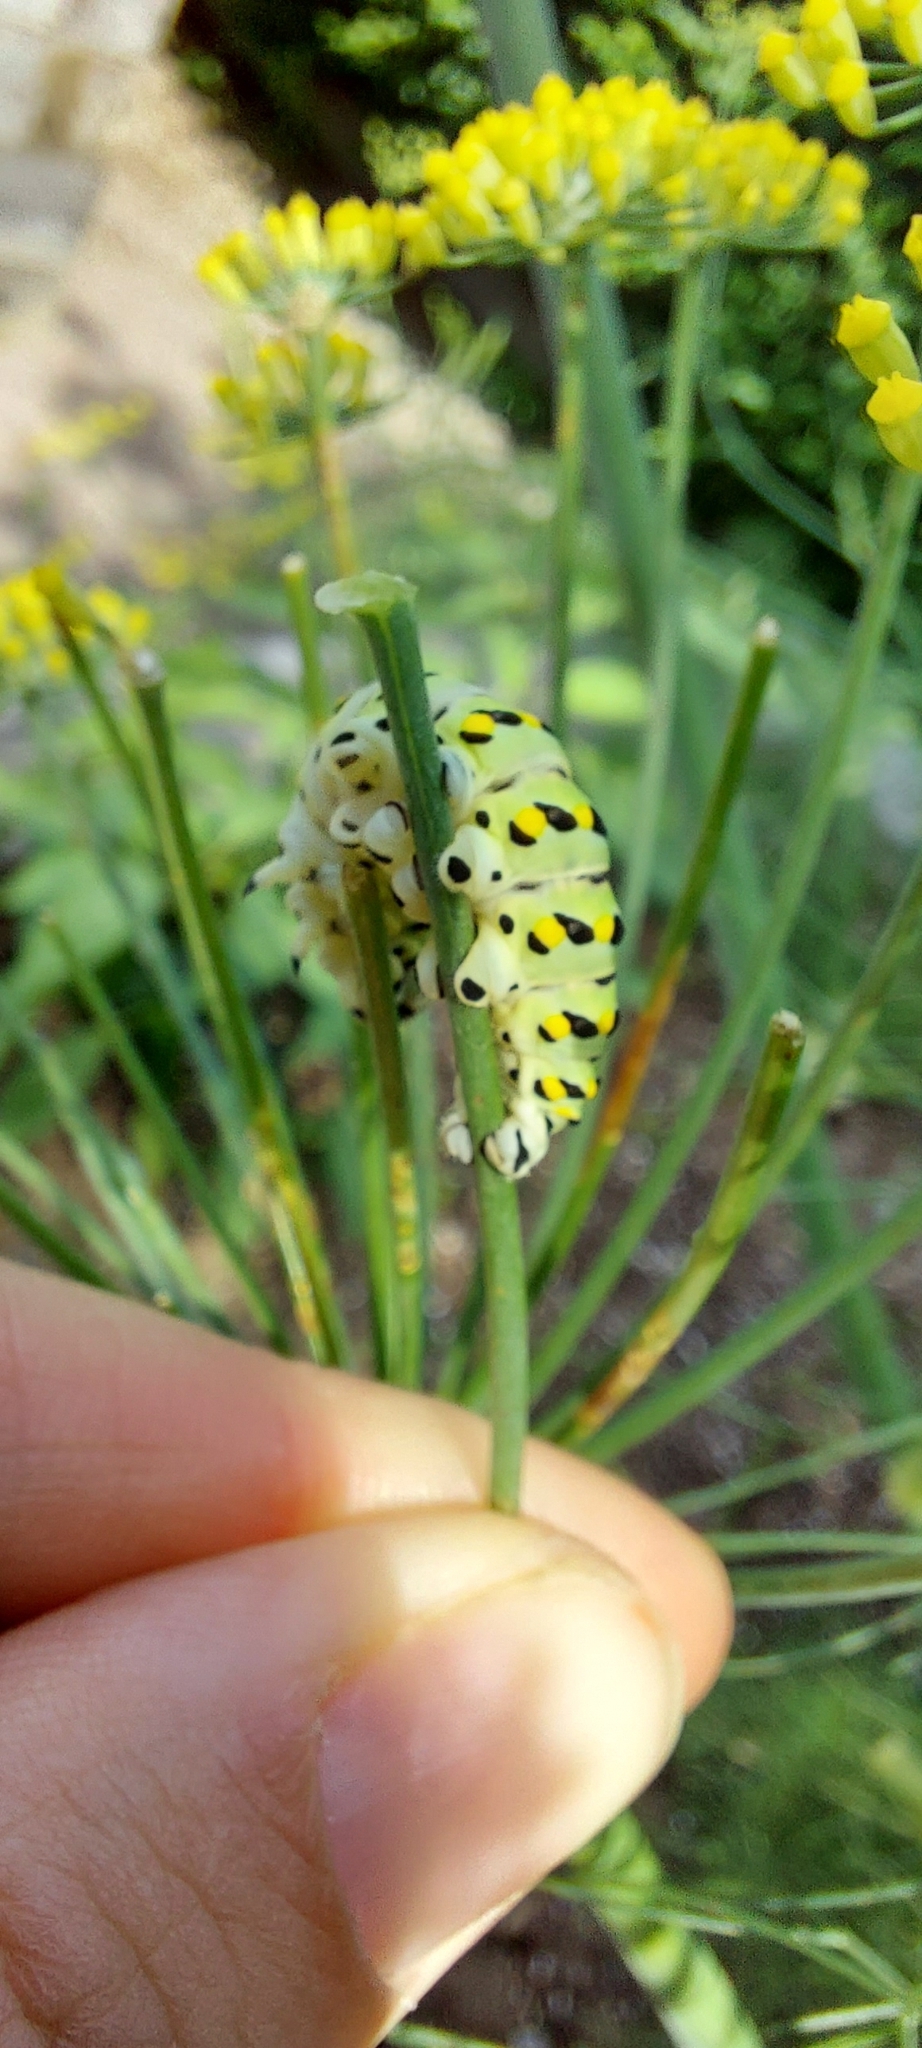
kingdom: Animalia
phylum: Arthropoda
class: Insecta
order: Lepidoptera
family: Papilionidae
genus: Papilio
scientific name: Papilio polyxenes
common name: Black swallowtail
